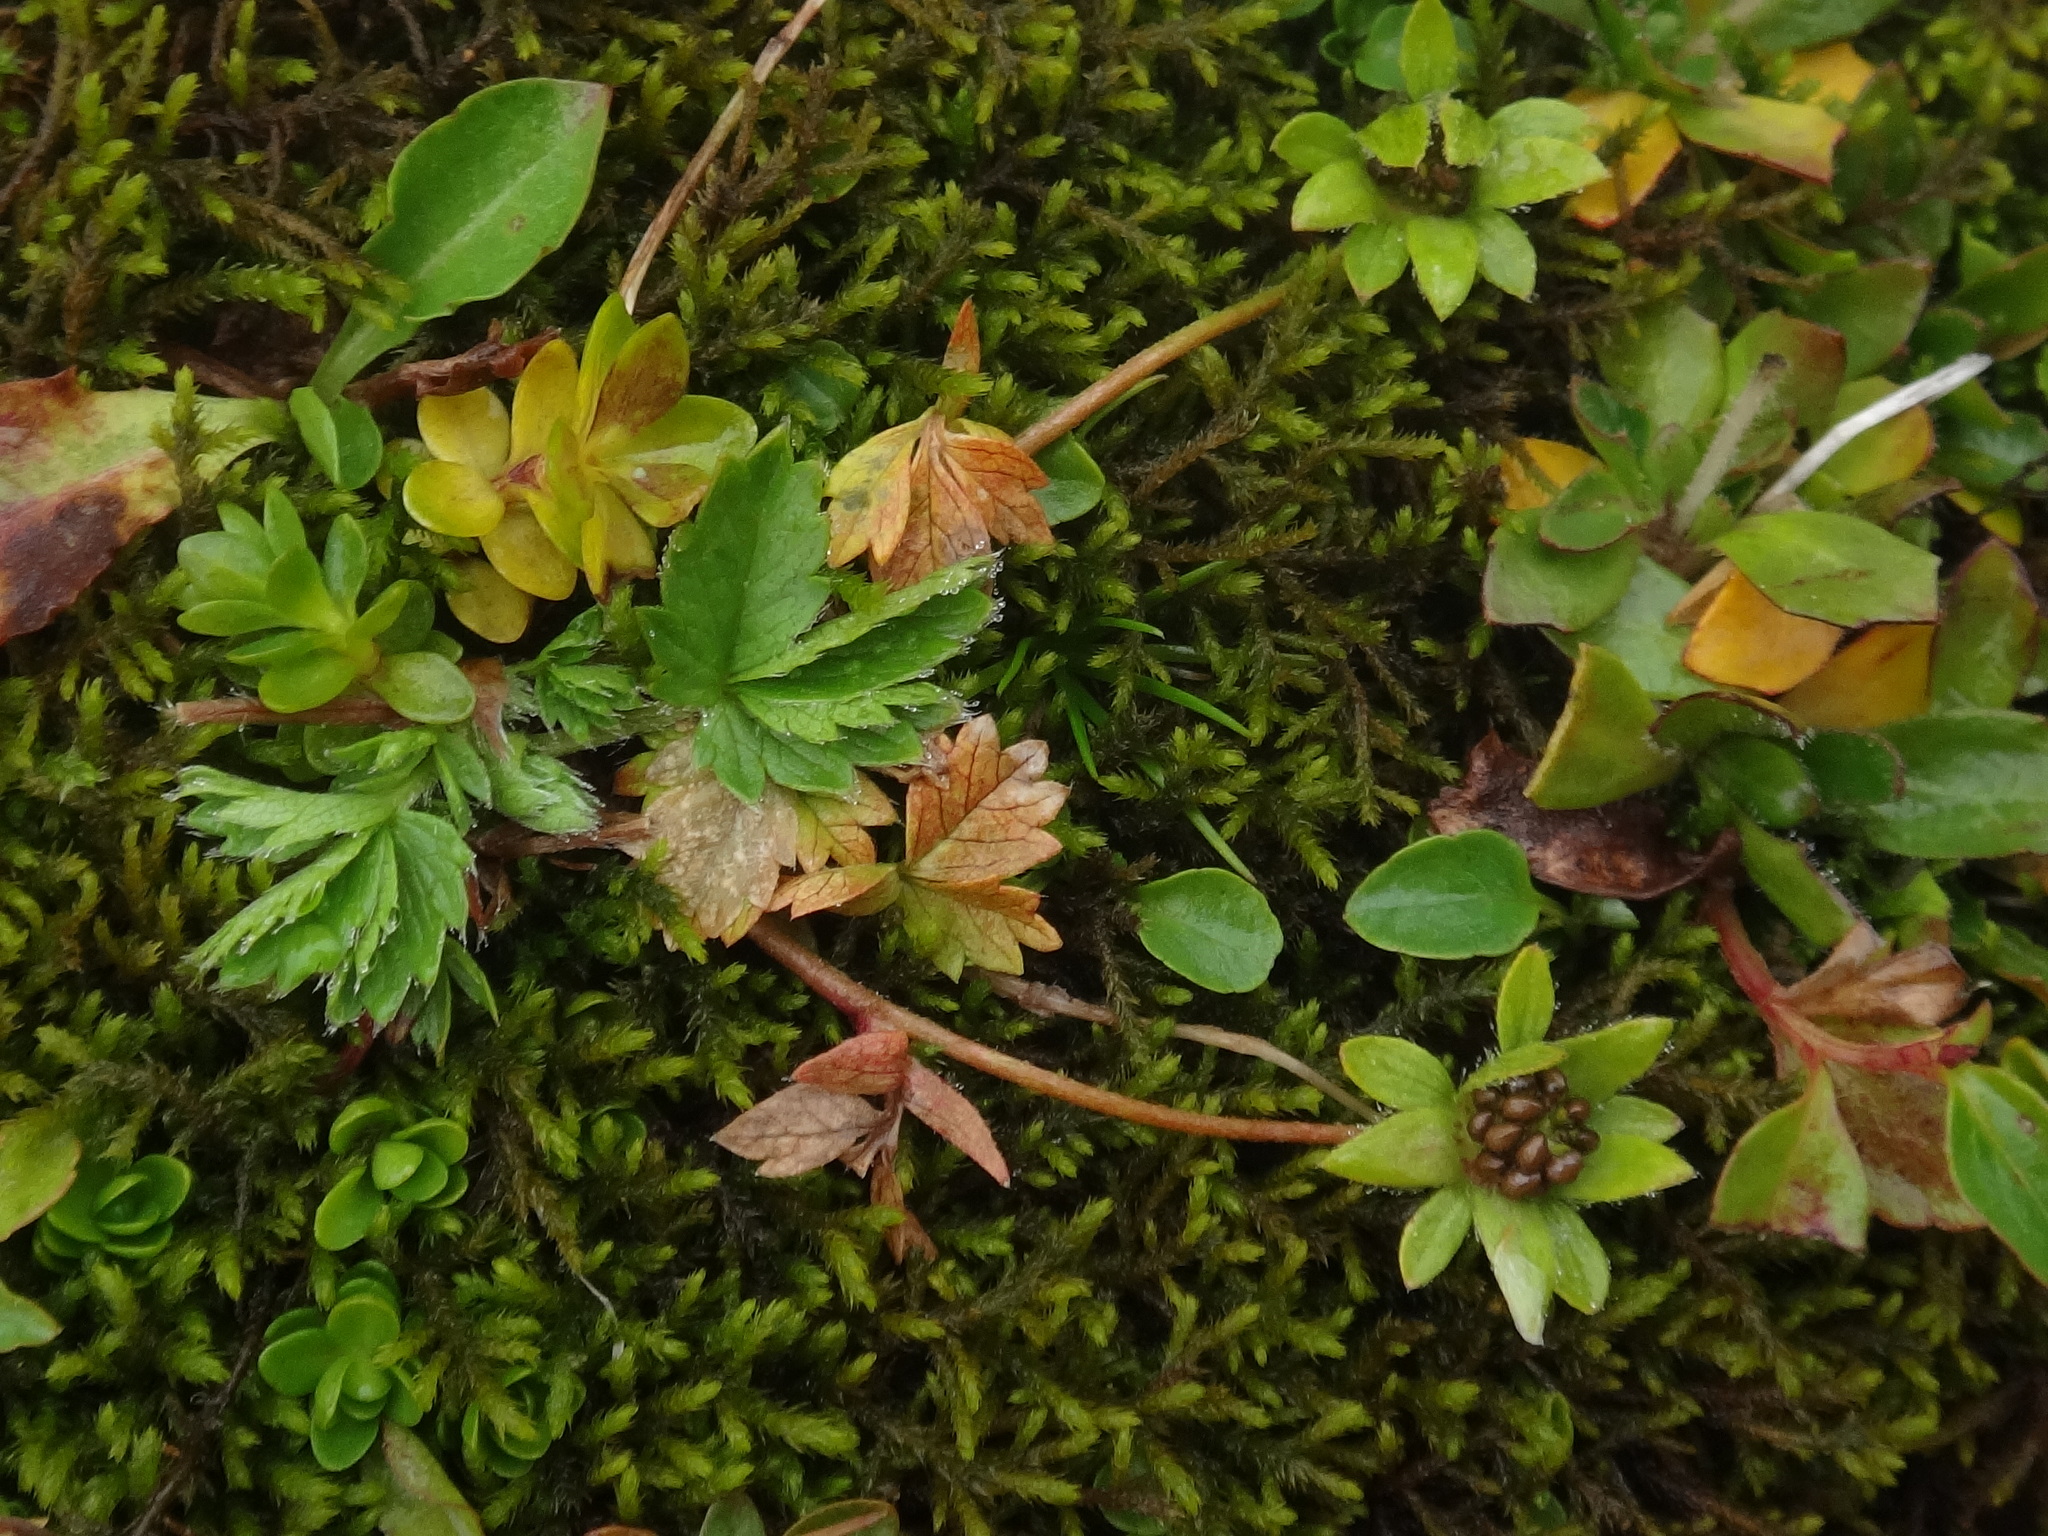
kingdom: Plantae
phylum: Tracheophyta
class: Magnoliopsida
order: Rosales
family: Rosaceae
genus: Potentilla
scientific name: Potentilla brauneana
